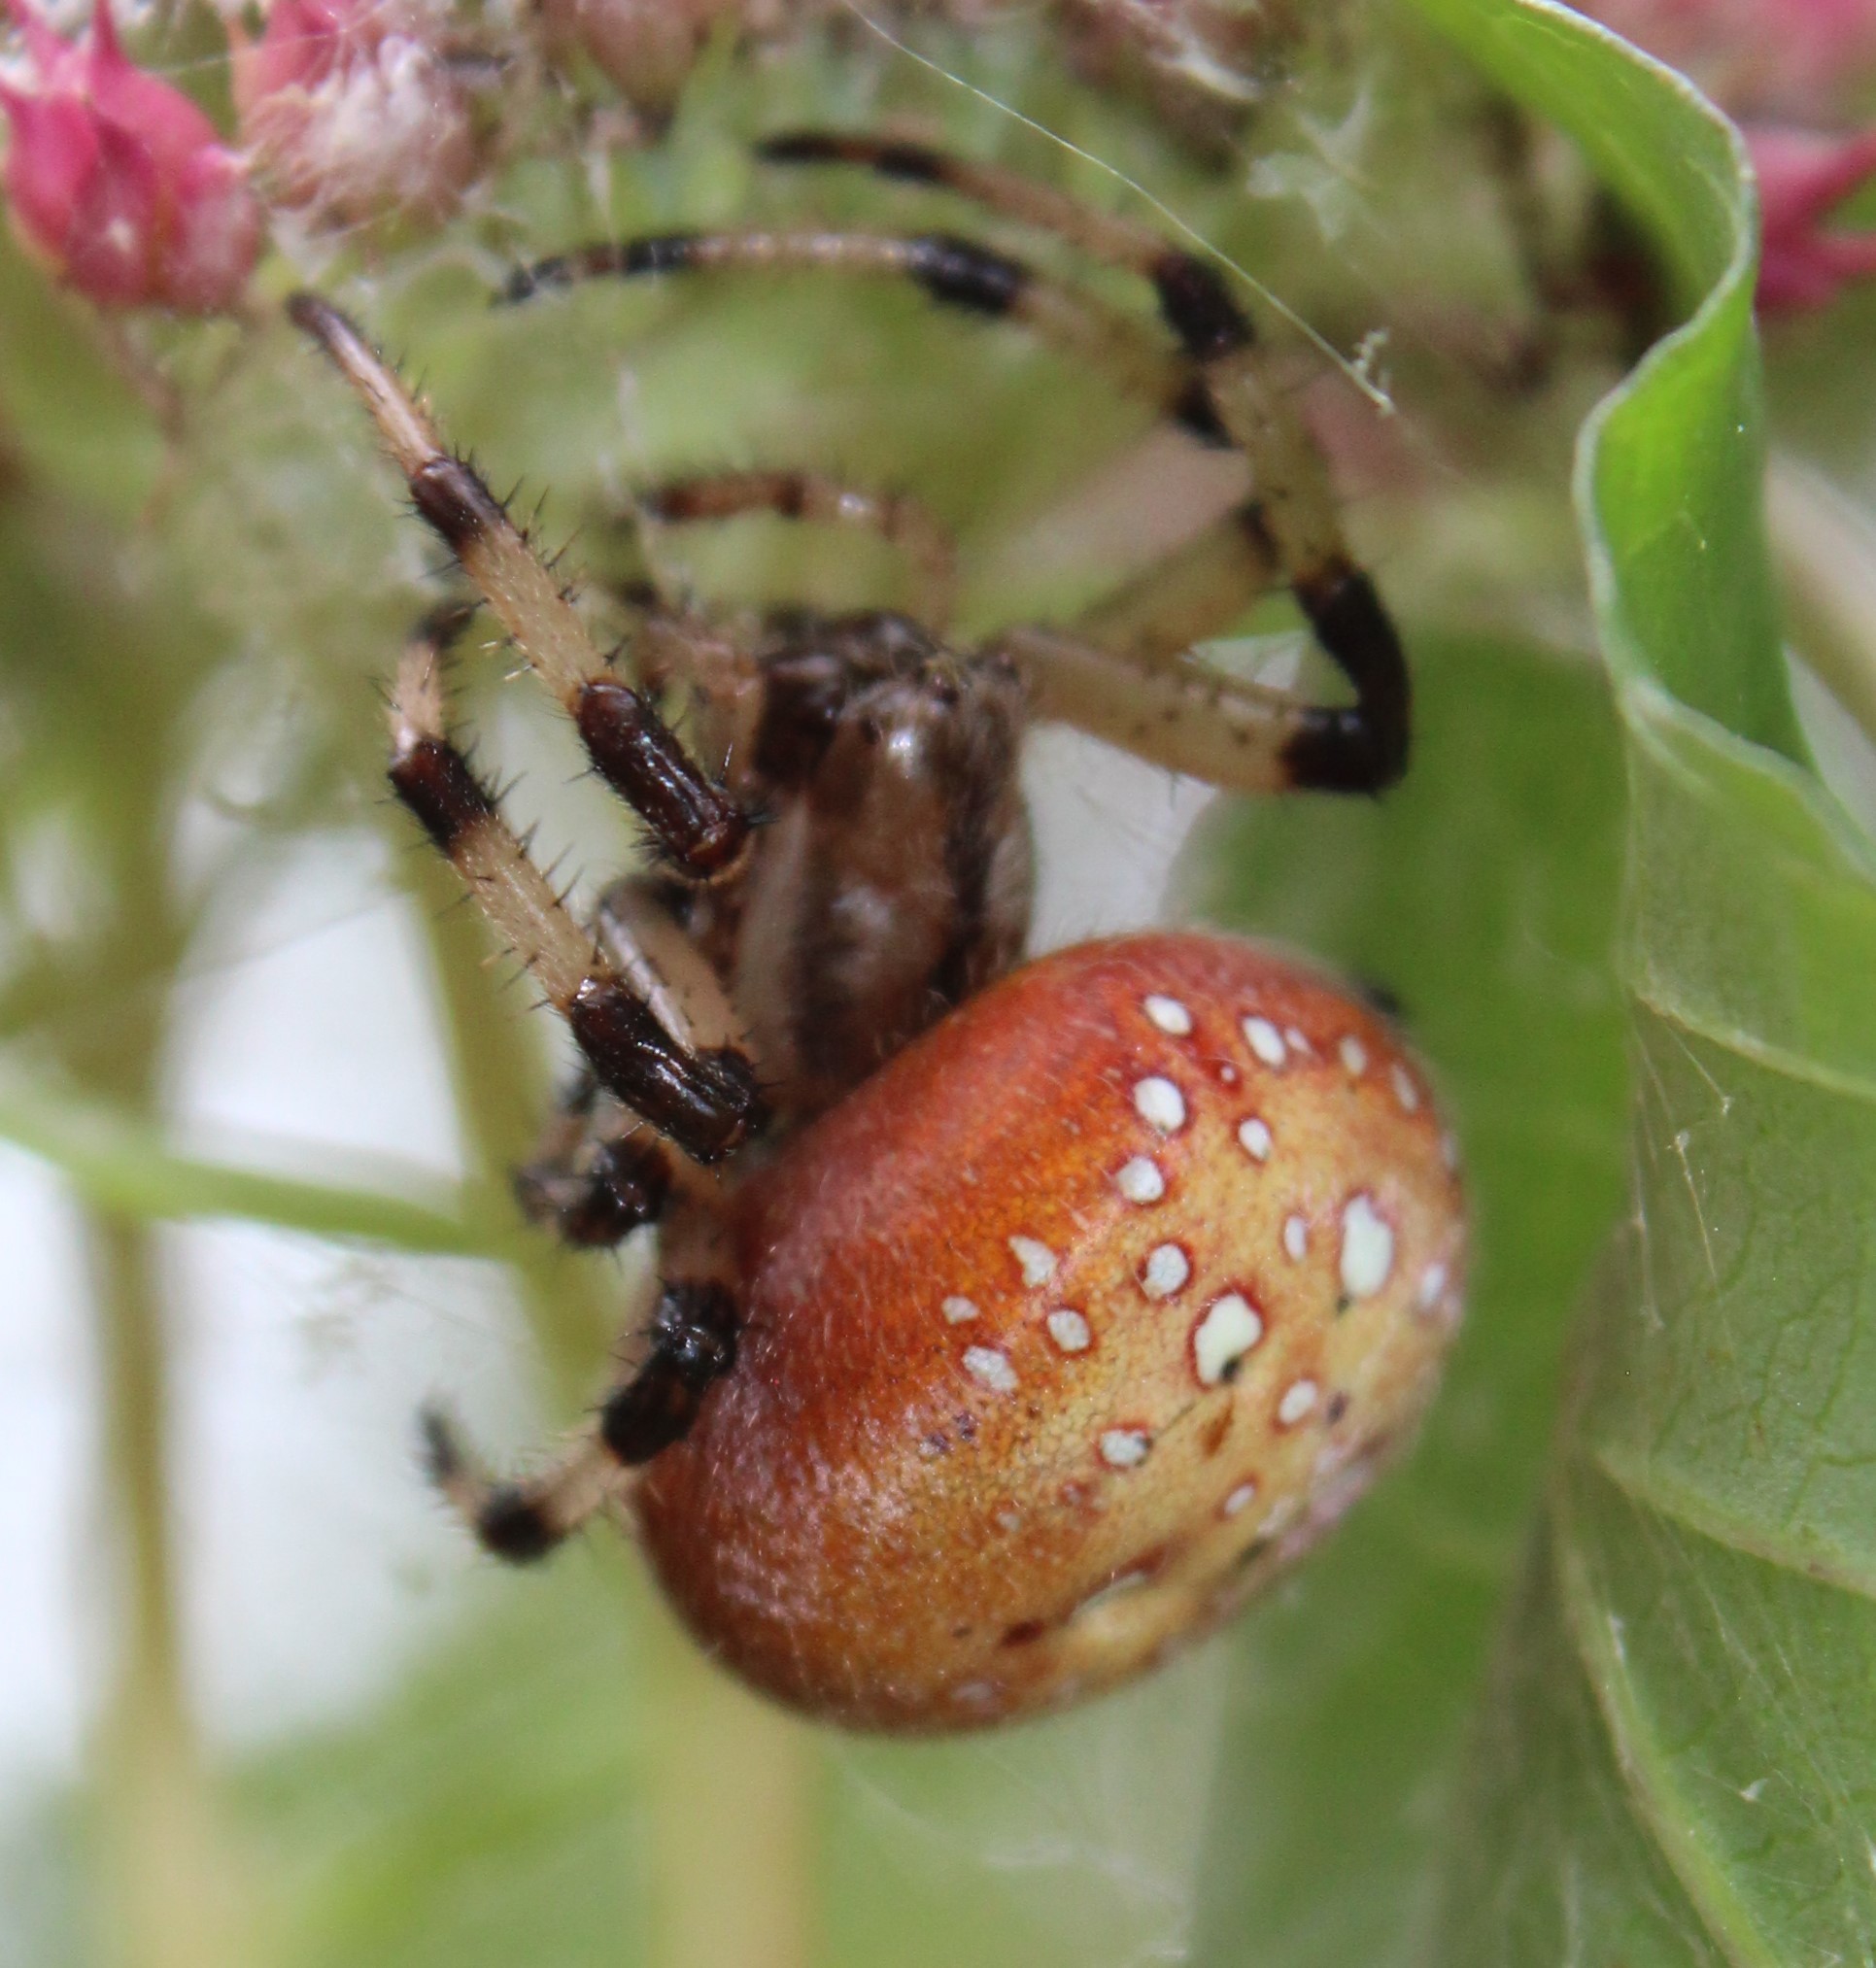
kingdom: Animalia
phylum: Arthropoda
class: Arachnida
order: Araneae
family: Araneidae
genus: Araneus
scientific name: Araneus trifolium
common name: Shamrock orbweaver
